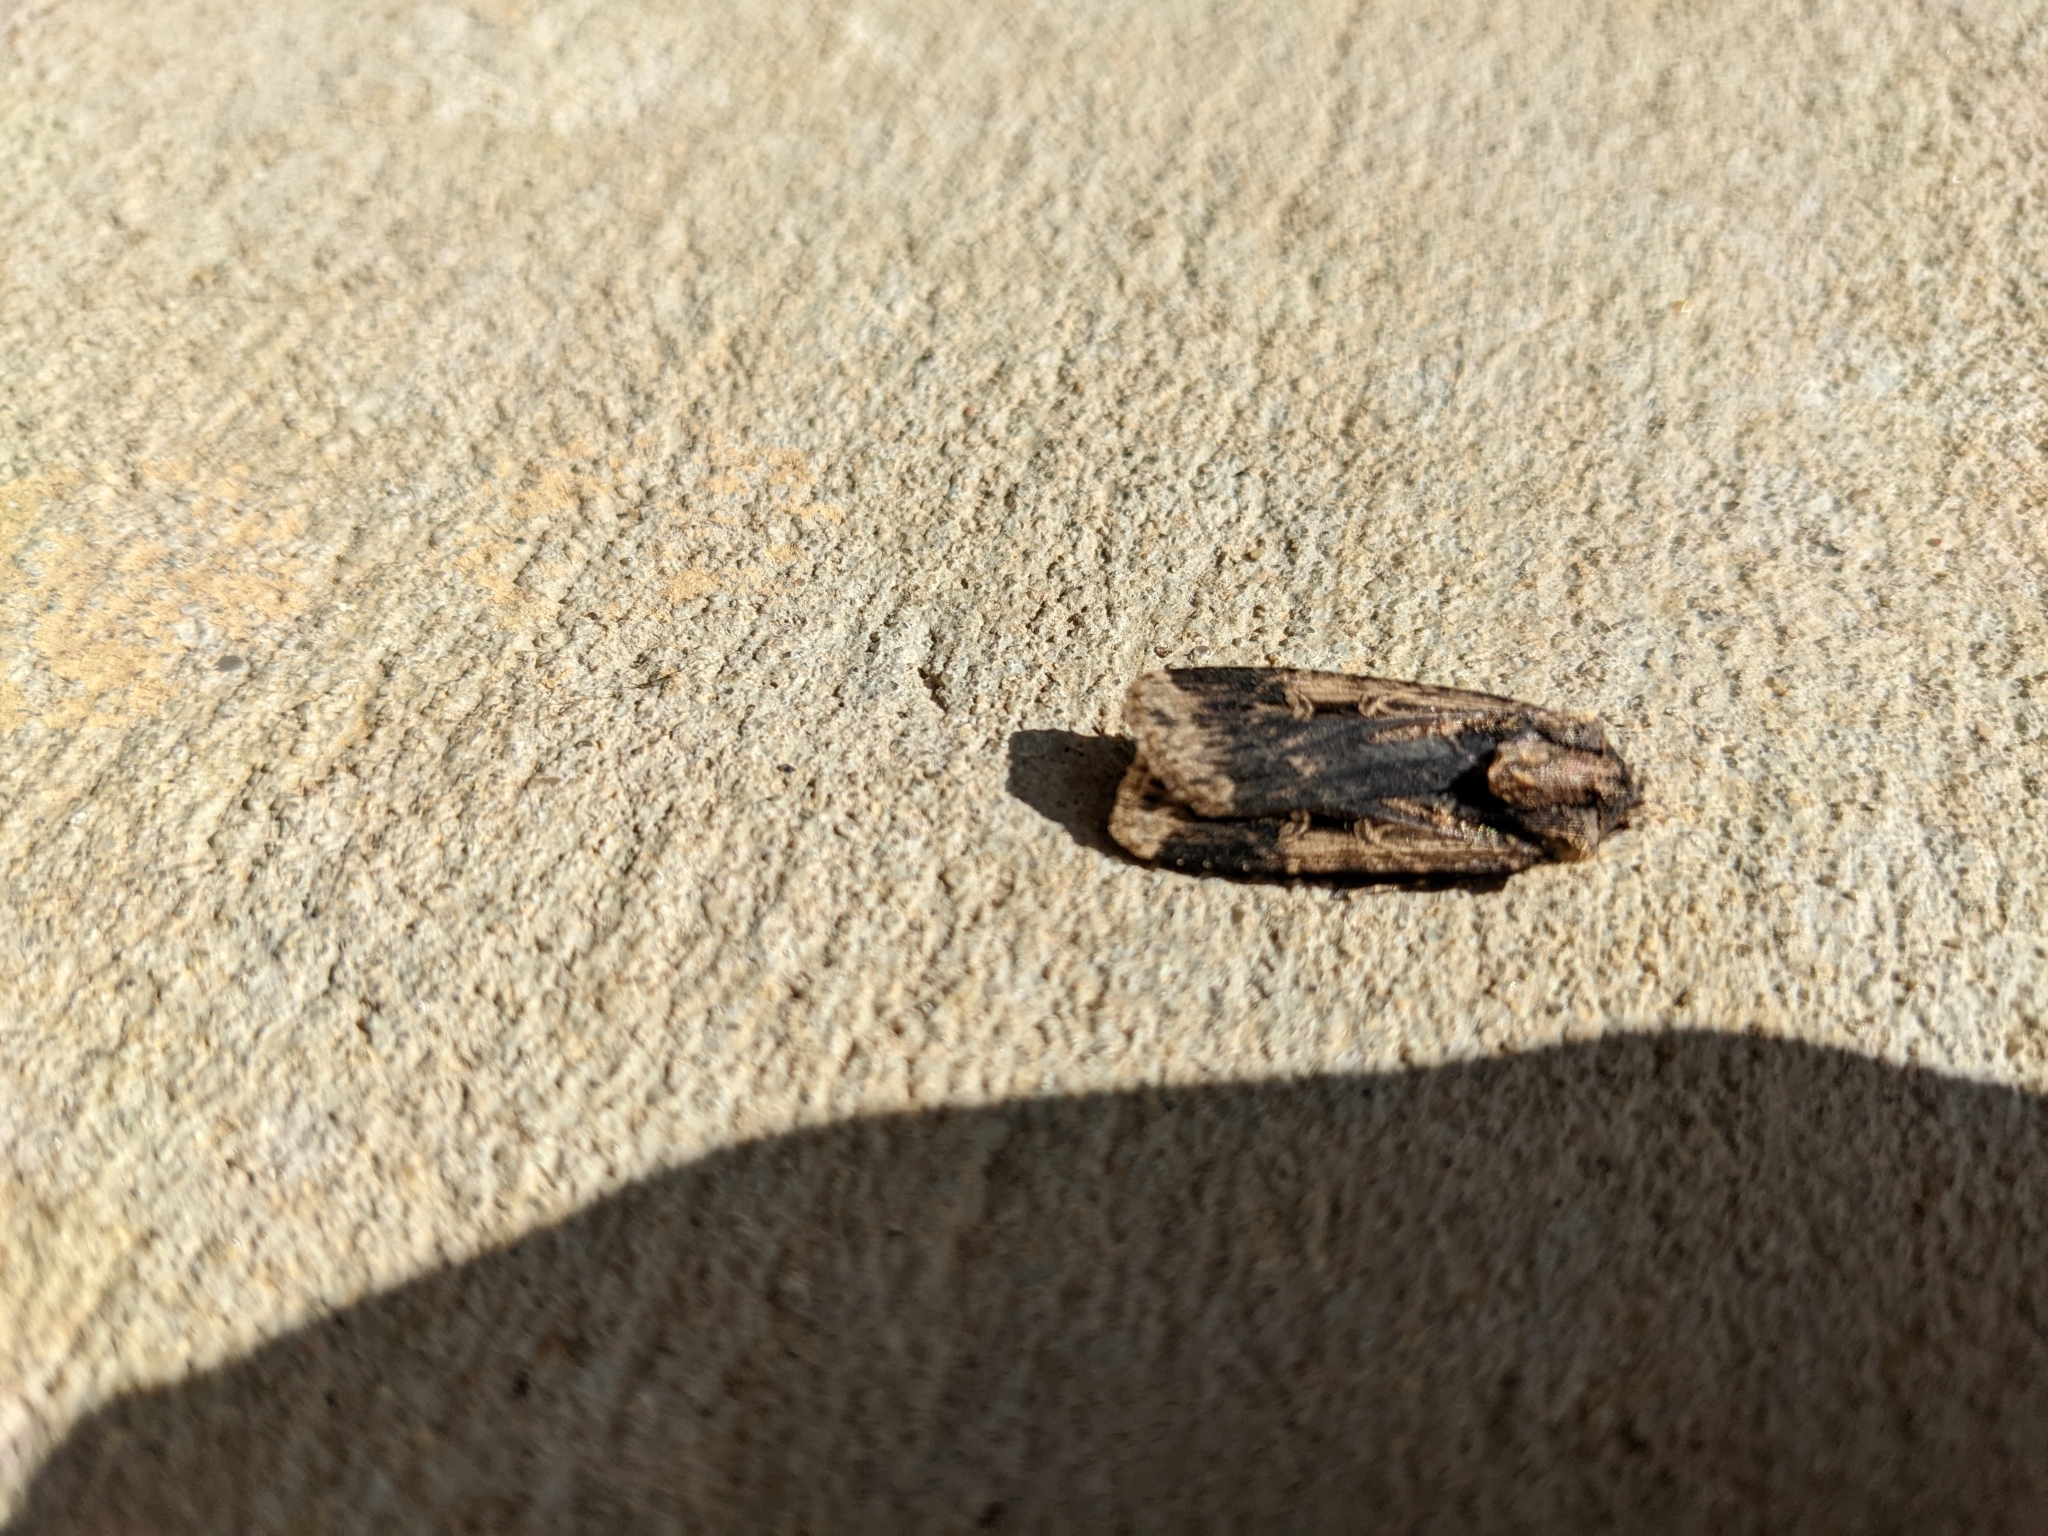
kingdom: Animalia
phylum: Arthropoda
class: Insecta
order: Lepidoptera
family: Noctuidae
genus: Feltia
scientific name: Feltia subterranea
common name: Granulate cutworm
